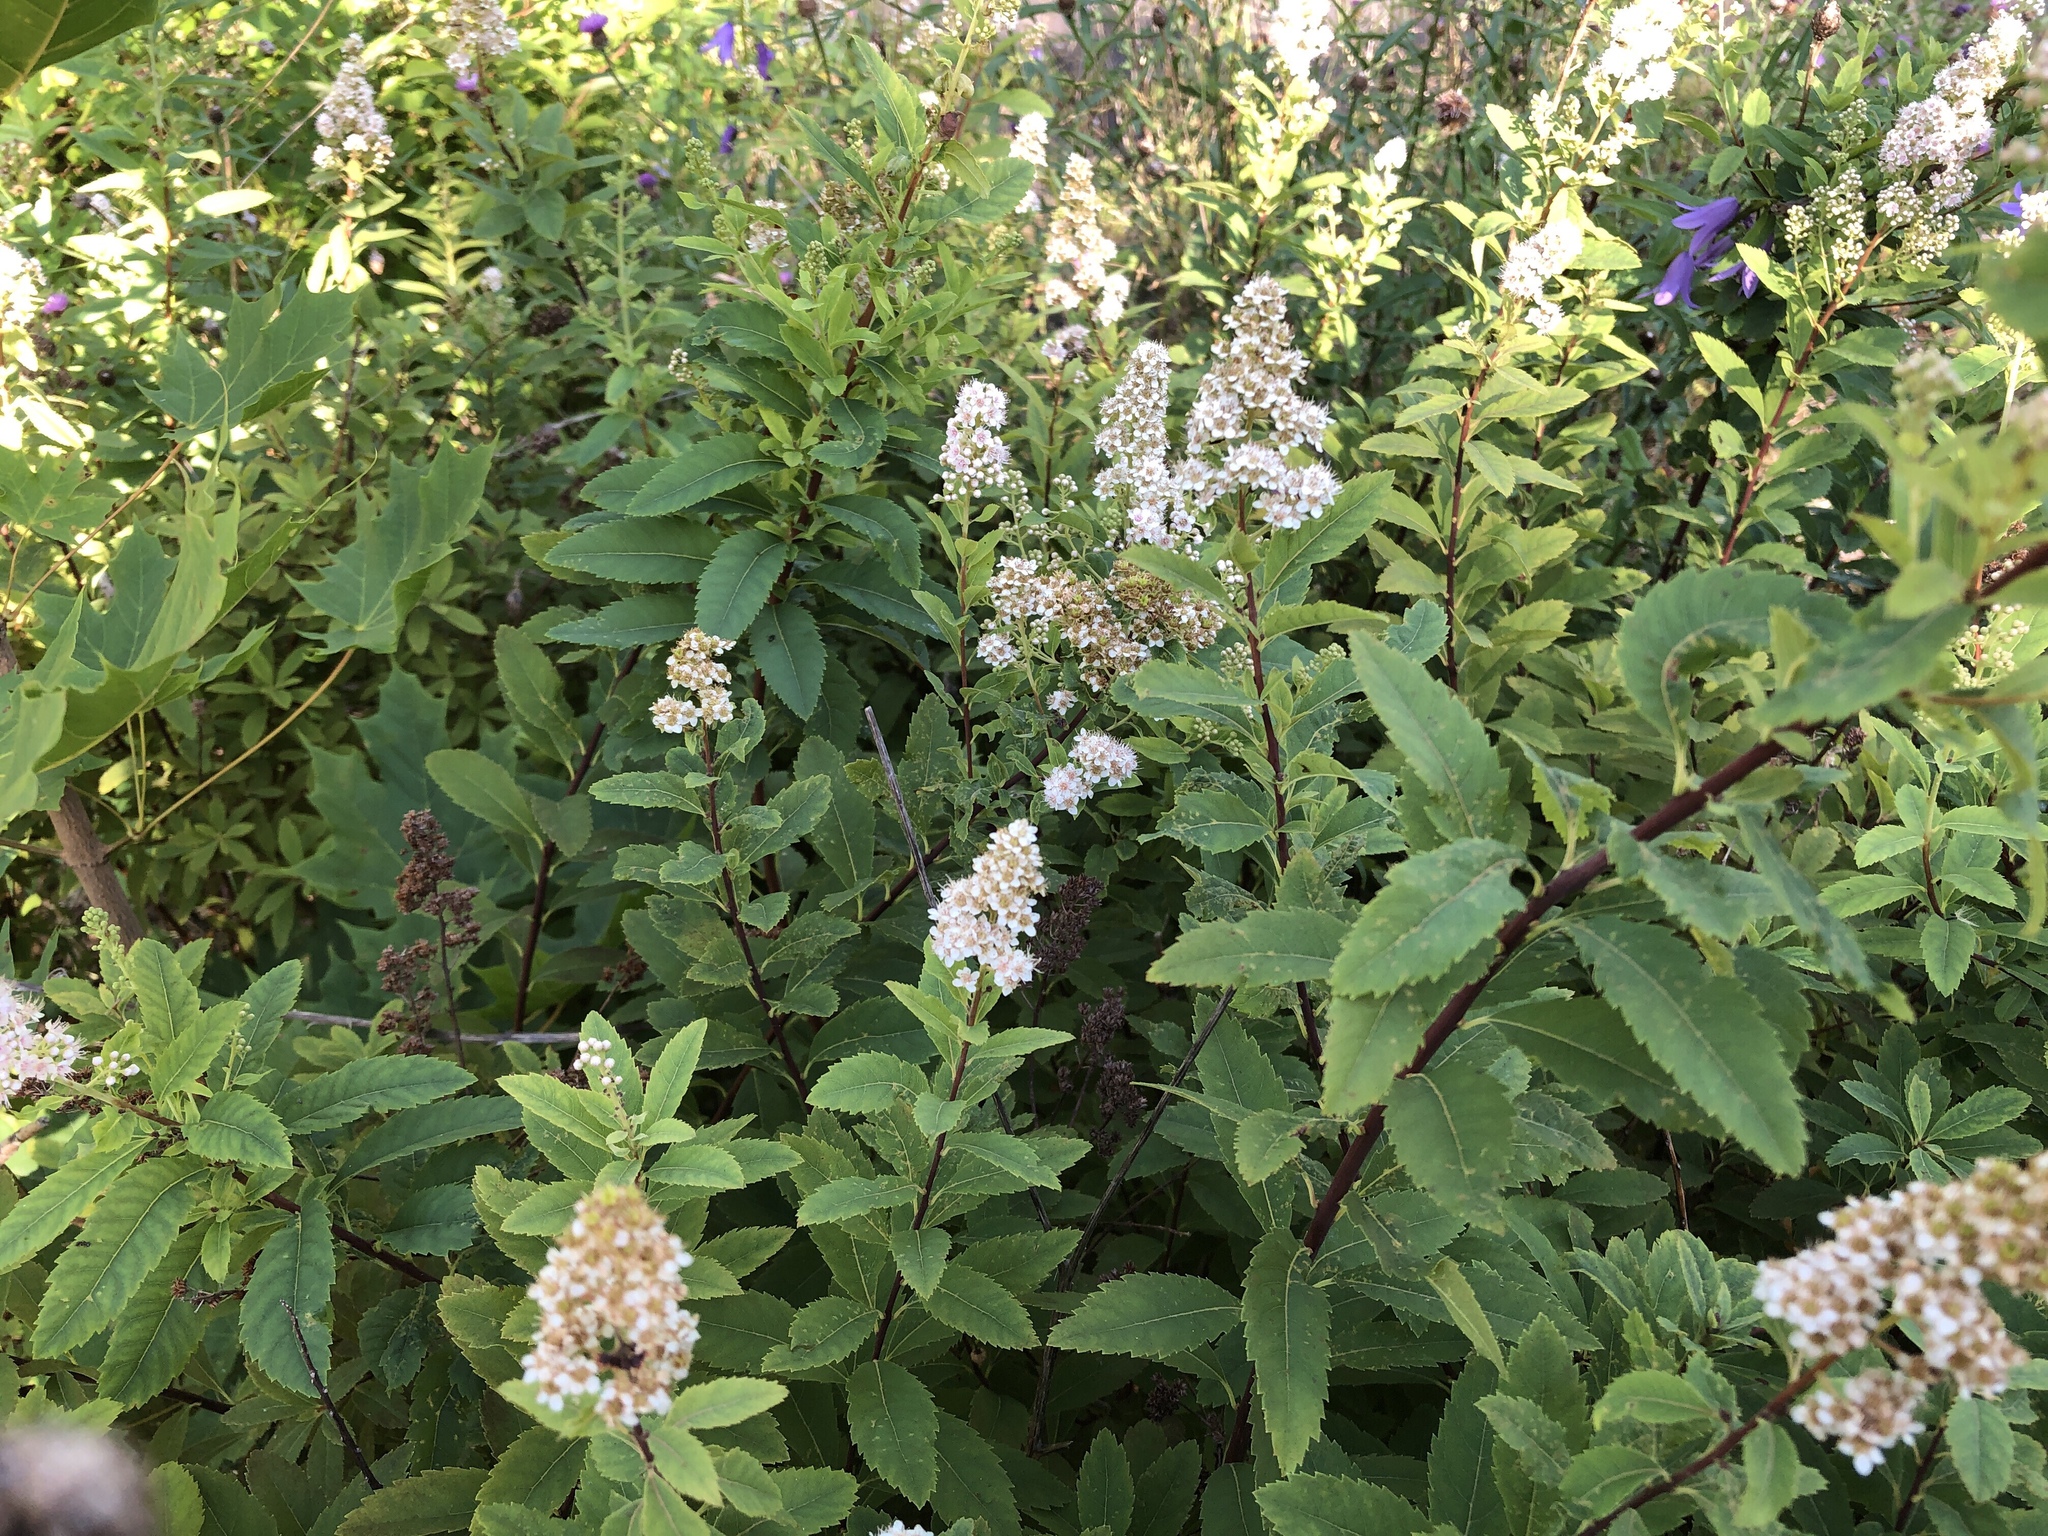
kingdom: Plantae
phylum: Tracheophyta
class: Magnoliopsida
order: Rosales
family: Rosaceae
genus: Spiraea
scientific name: Spiraea alba
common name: Pale bridewort
